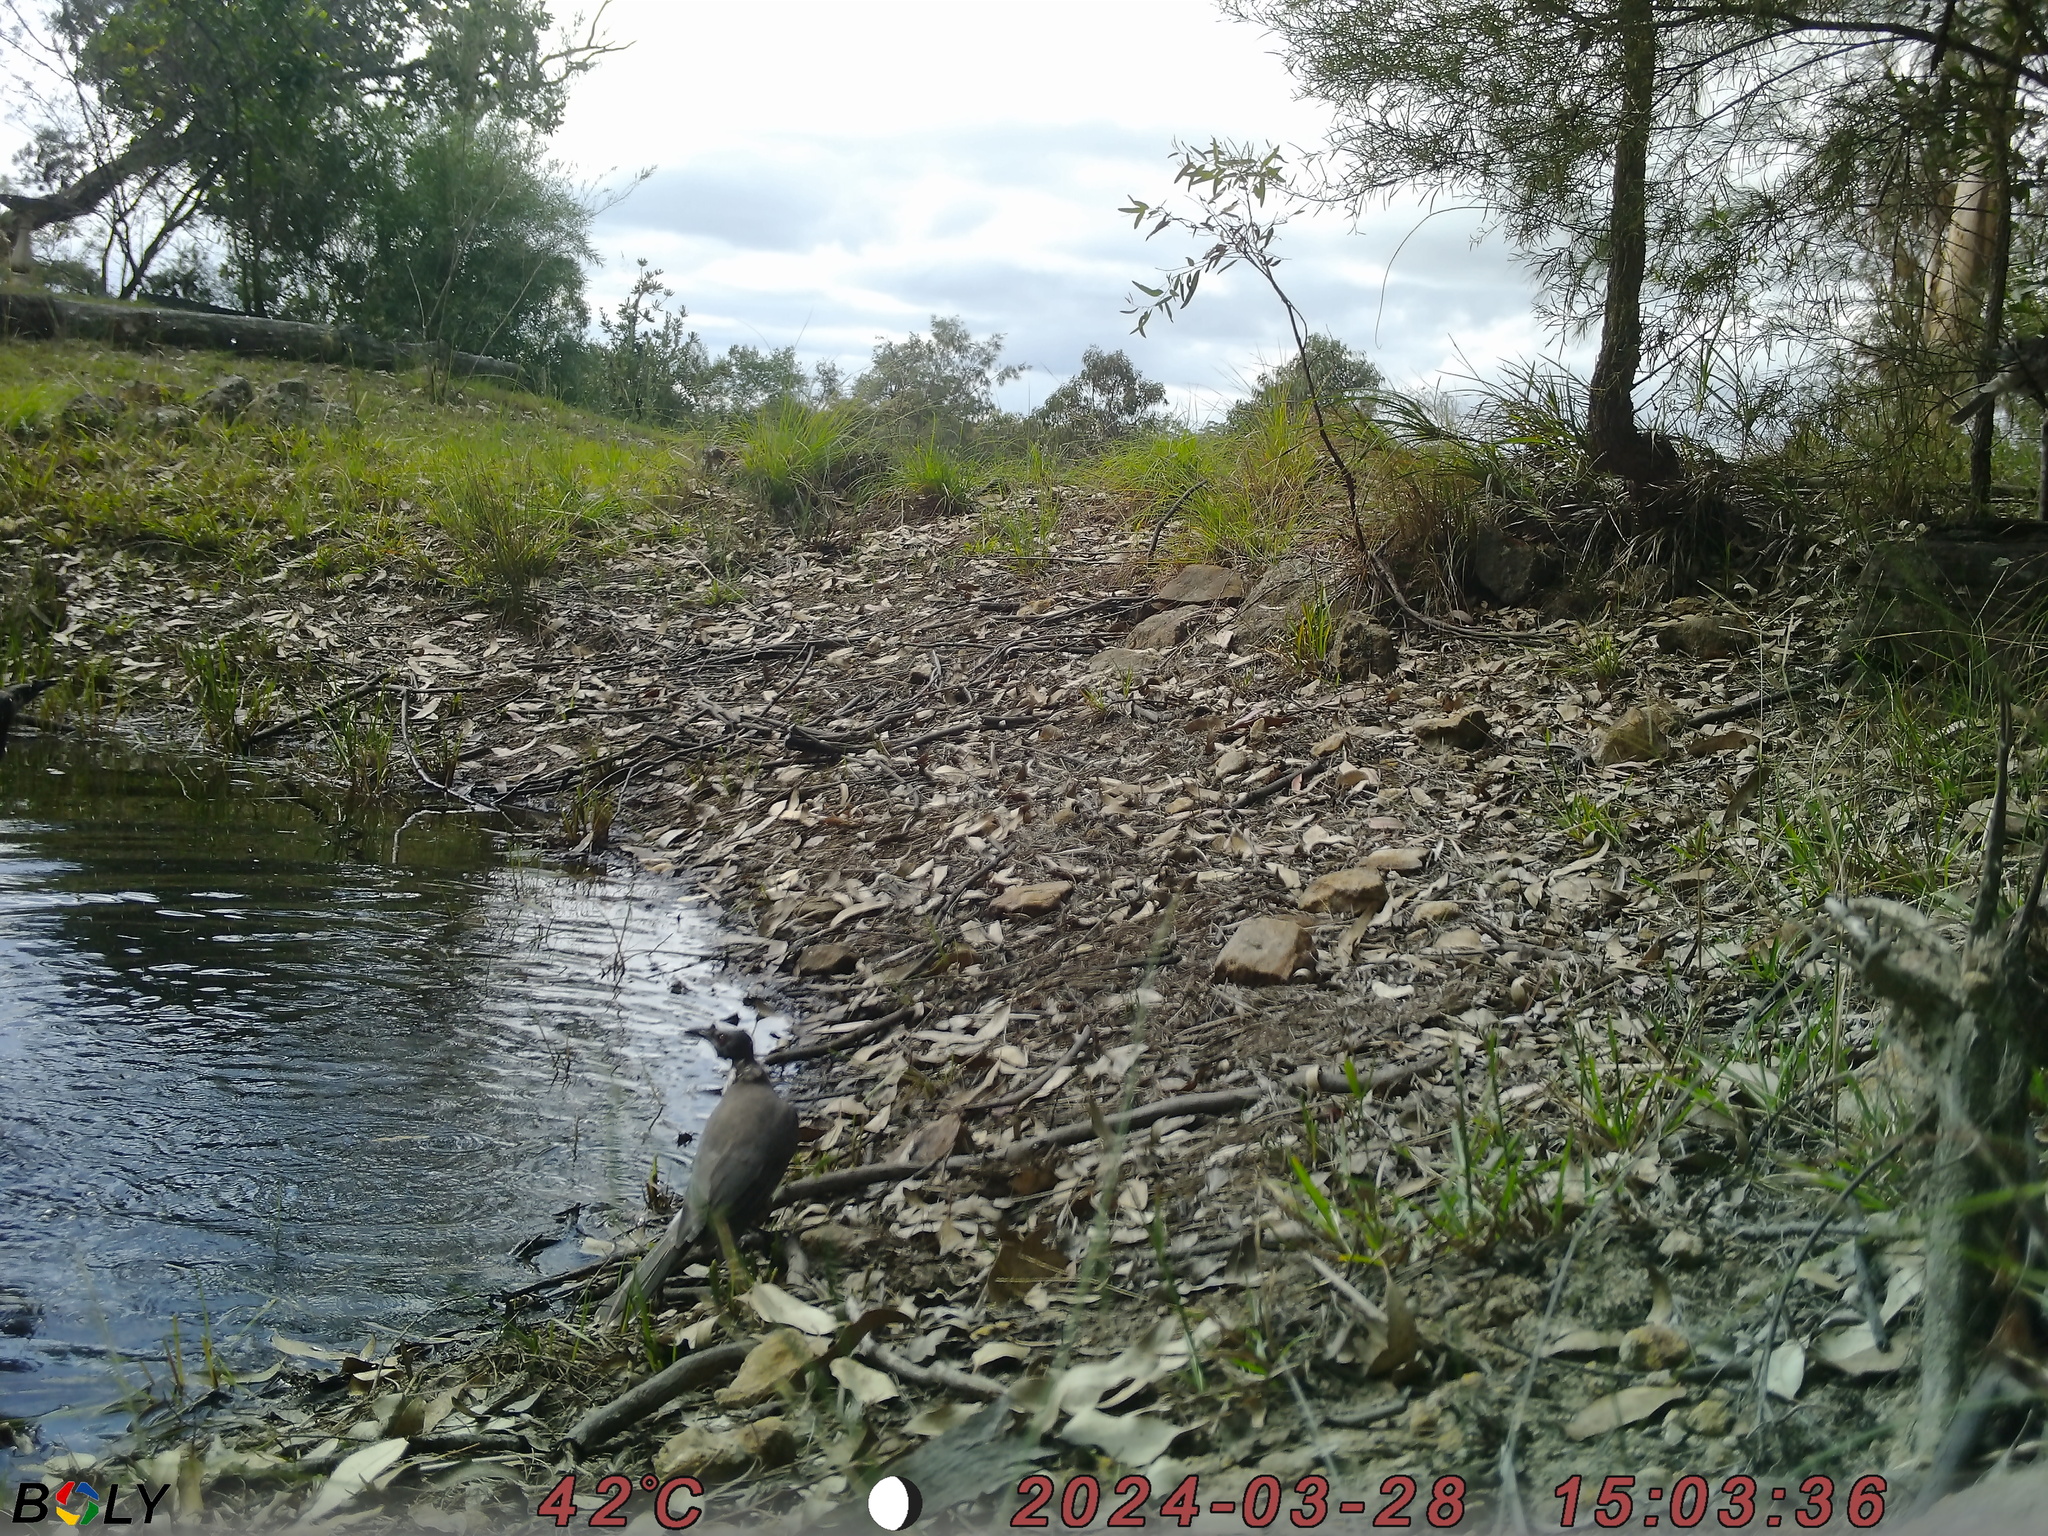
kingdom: Animalia
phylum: Chordata
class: Aves
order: Passeriformes
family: Meliphagidae
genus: Philemon
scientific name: Philemon corniculatus
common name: Noisy friarbird
